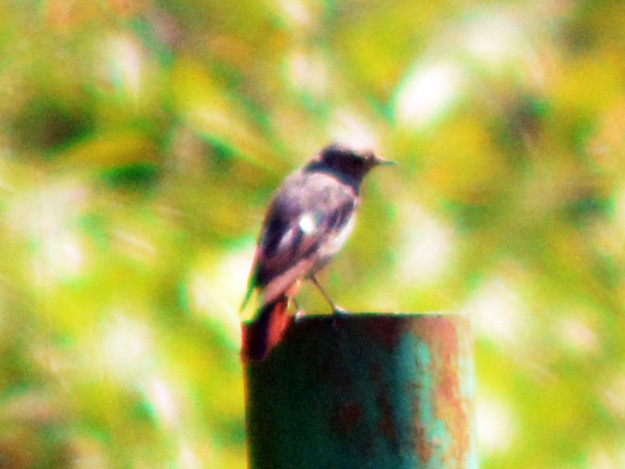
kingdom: Animalia
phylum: Chordata
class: Aves
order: Passeriformes
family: Muscicapidae
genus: Phoenicurus
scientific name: Phoenicurus ochruros
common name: Black redstart
